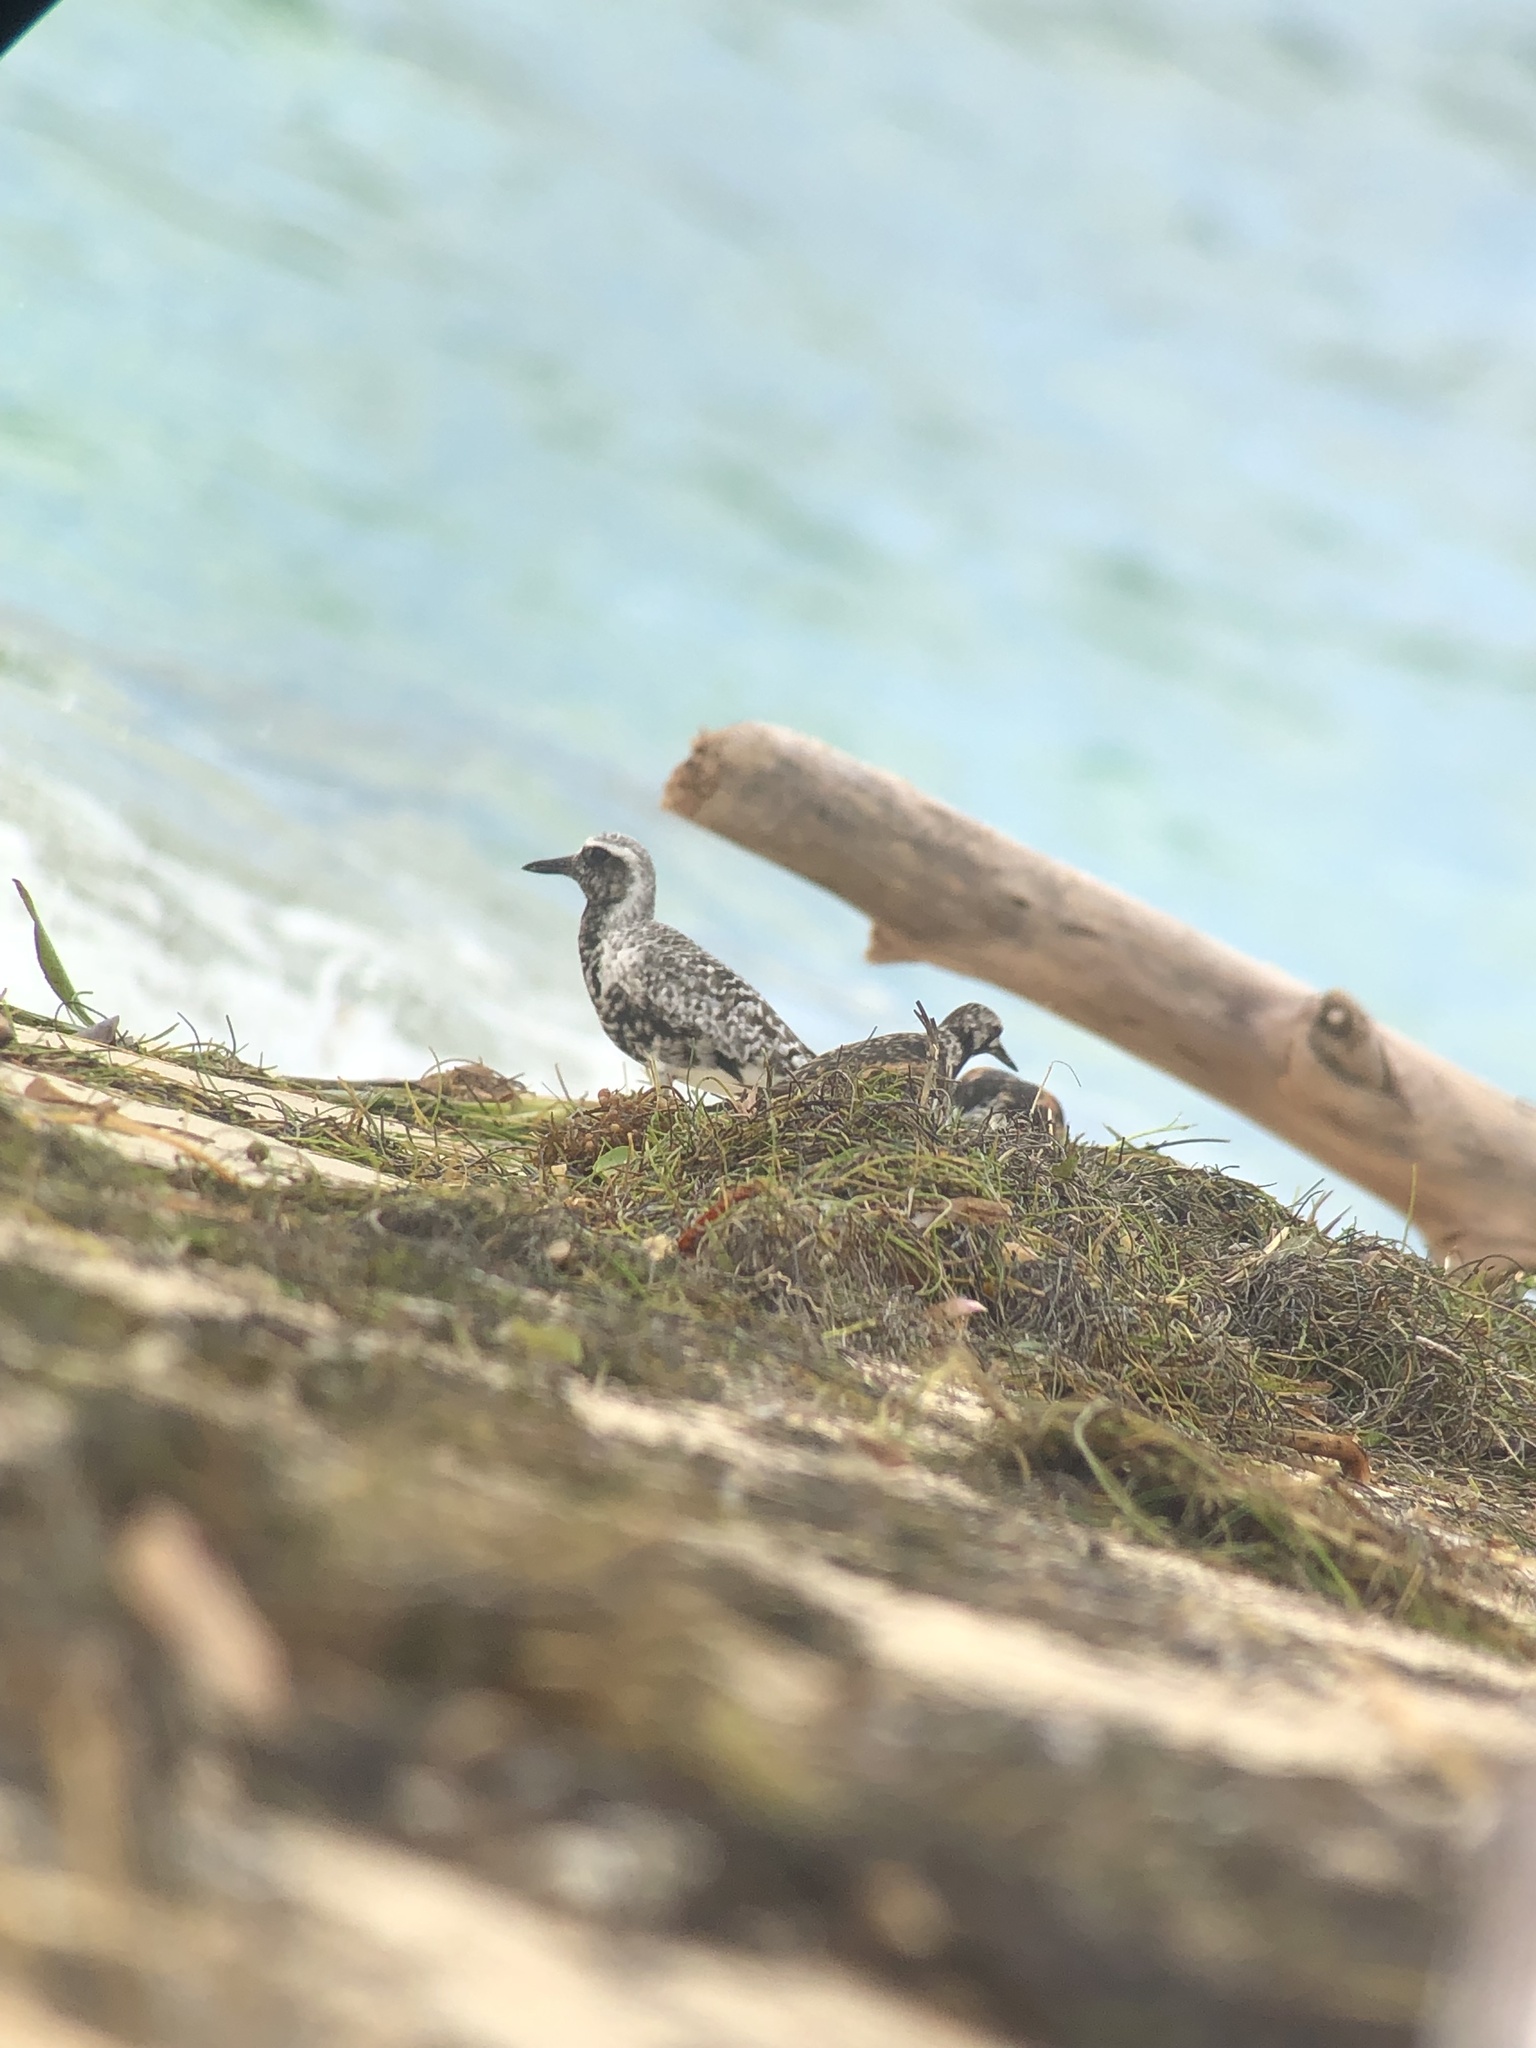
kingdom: Animalia
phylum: Chordata
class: Aves
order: Charadriiformes
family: Charadriidae
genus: Pluvialis
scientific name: Pluvialis squatarola
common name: Grey plover
